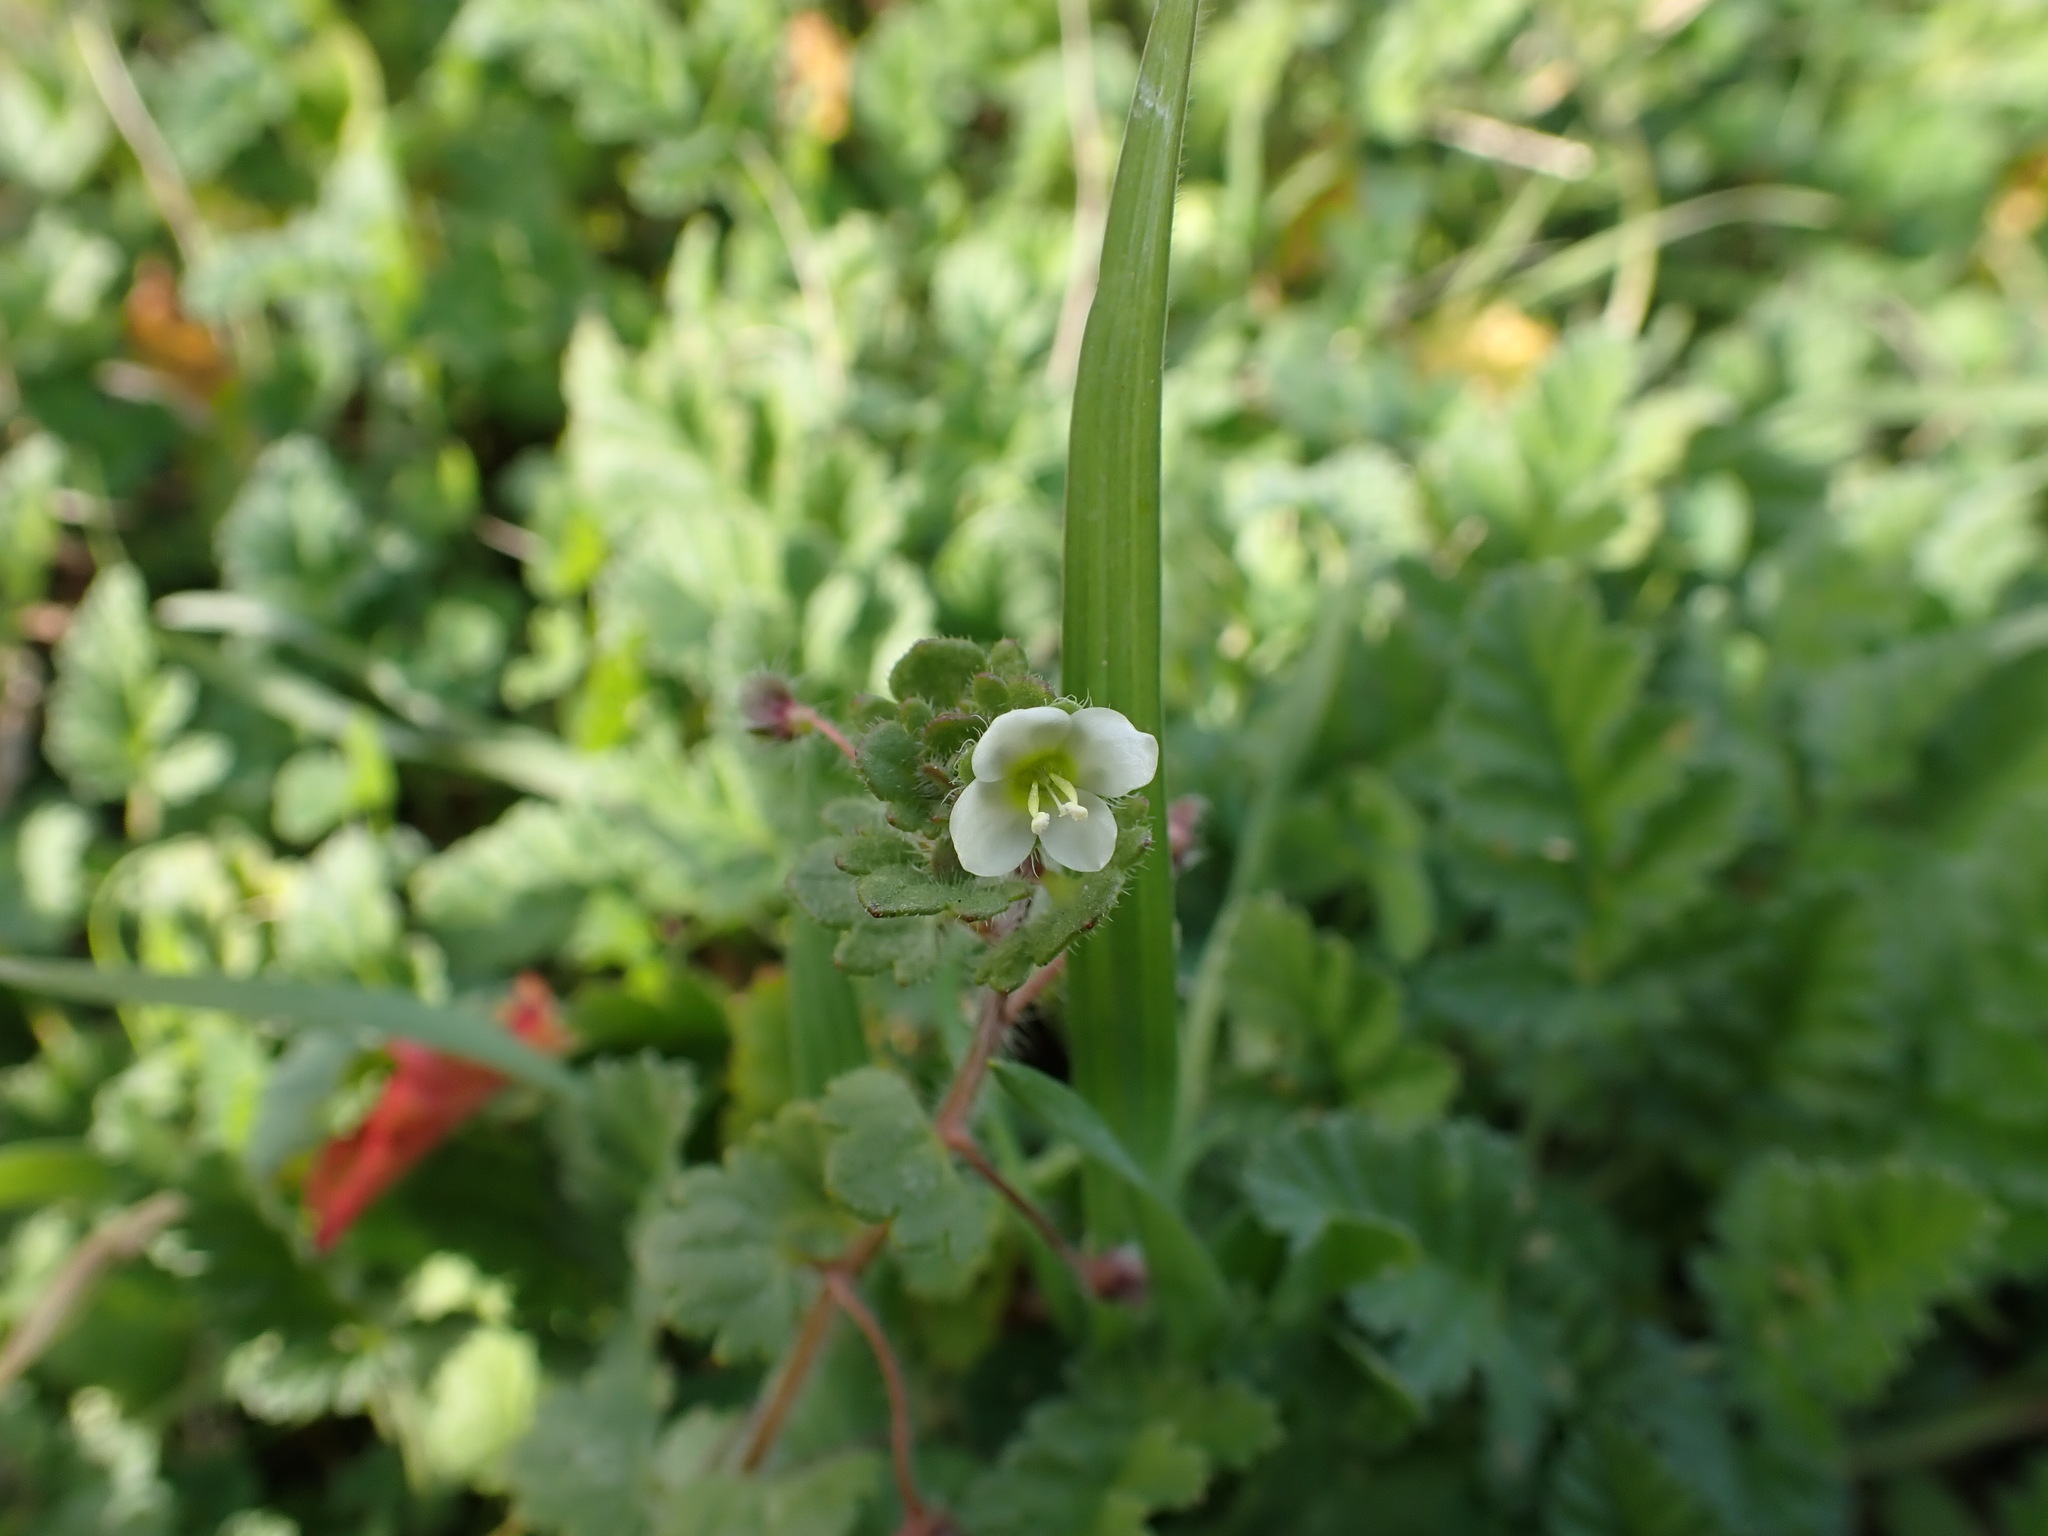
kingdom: Plantae
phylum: Tracheophyta
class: Magnoliopsida
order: Lamiales
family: Plantaginaceae
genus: Veronica
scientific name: Veronica cymbalaria
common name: Pale speedwell
